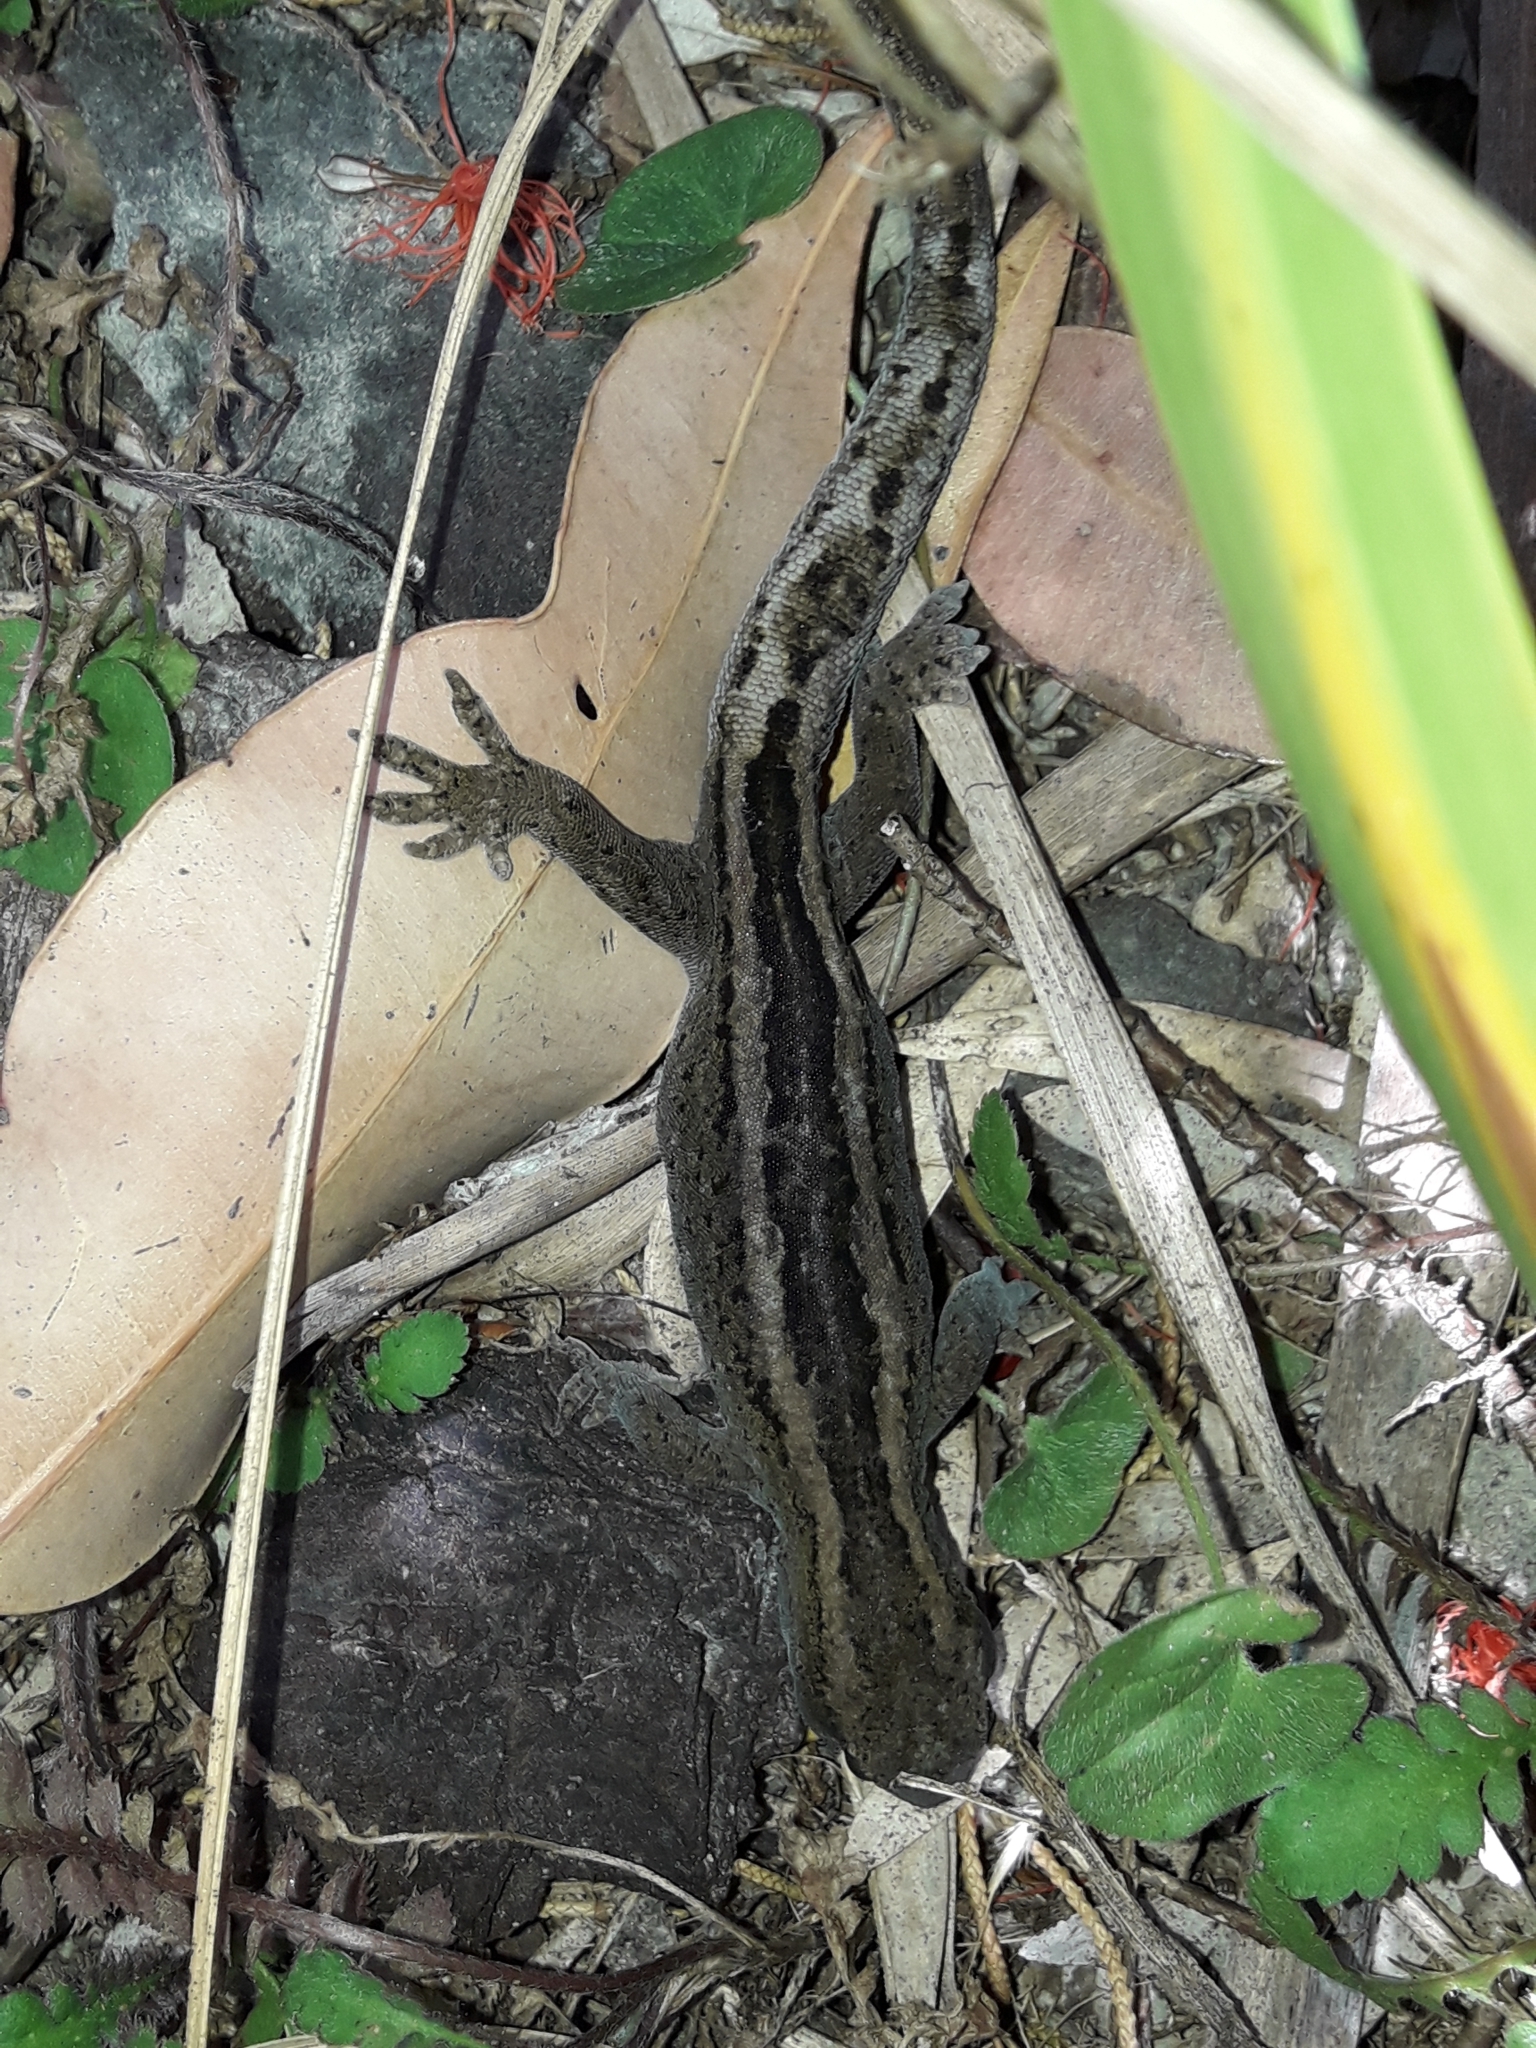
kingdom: Animalia
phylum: Chordata
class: Squamata
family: Diplodactylidae
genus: Woodworthia
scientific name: Woodworthia maculata
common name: Raukawa gecko
